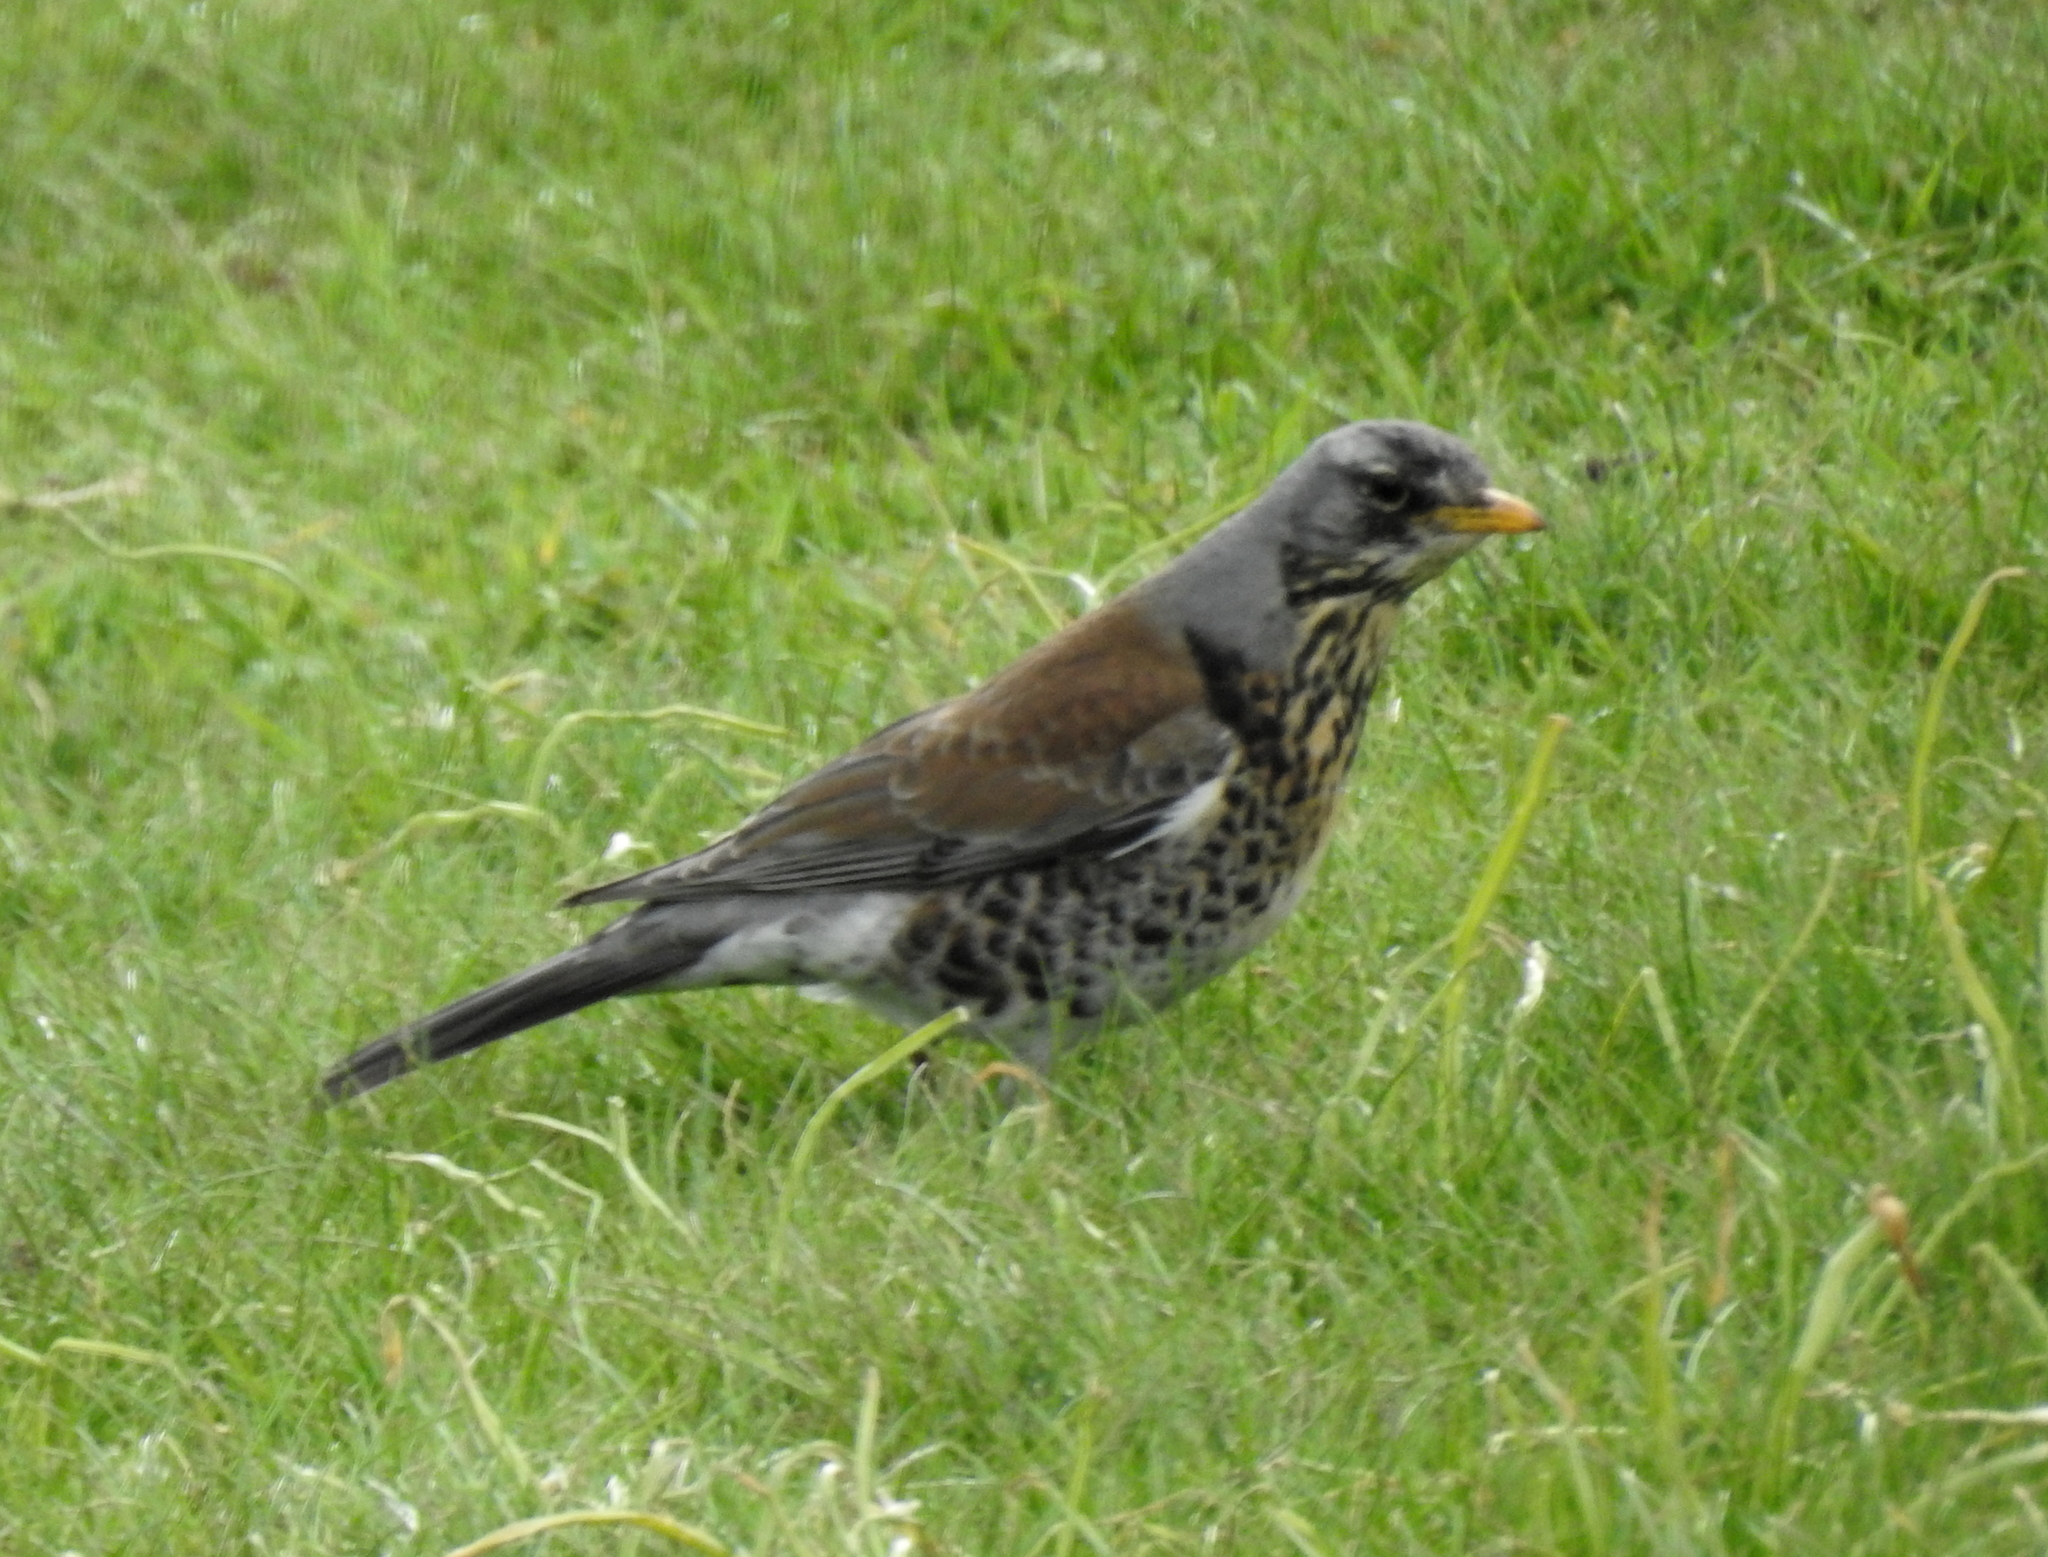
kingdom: Animalia
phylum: Chordata
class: Aves
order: Passeriformes
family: Turdidae
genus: Turdus
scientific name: Turdus pilaris
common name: Fieldfare
